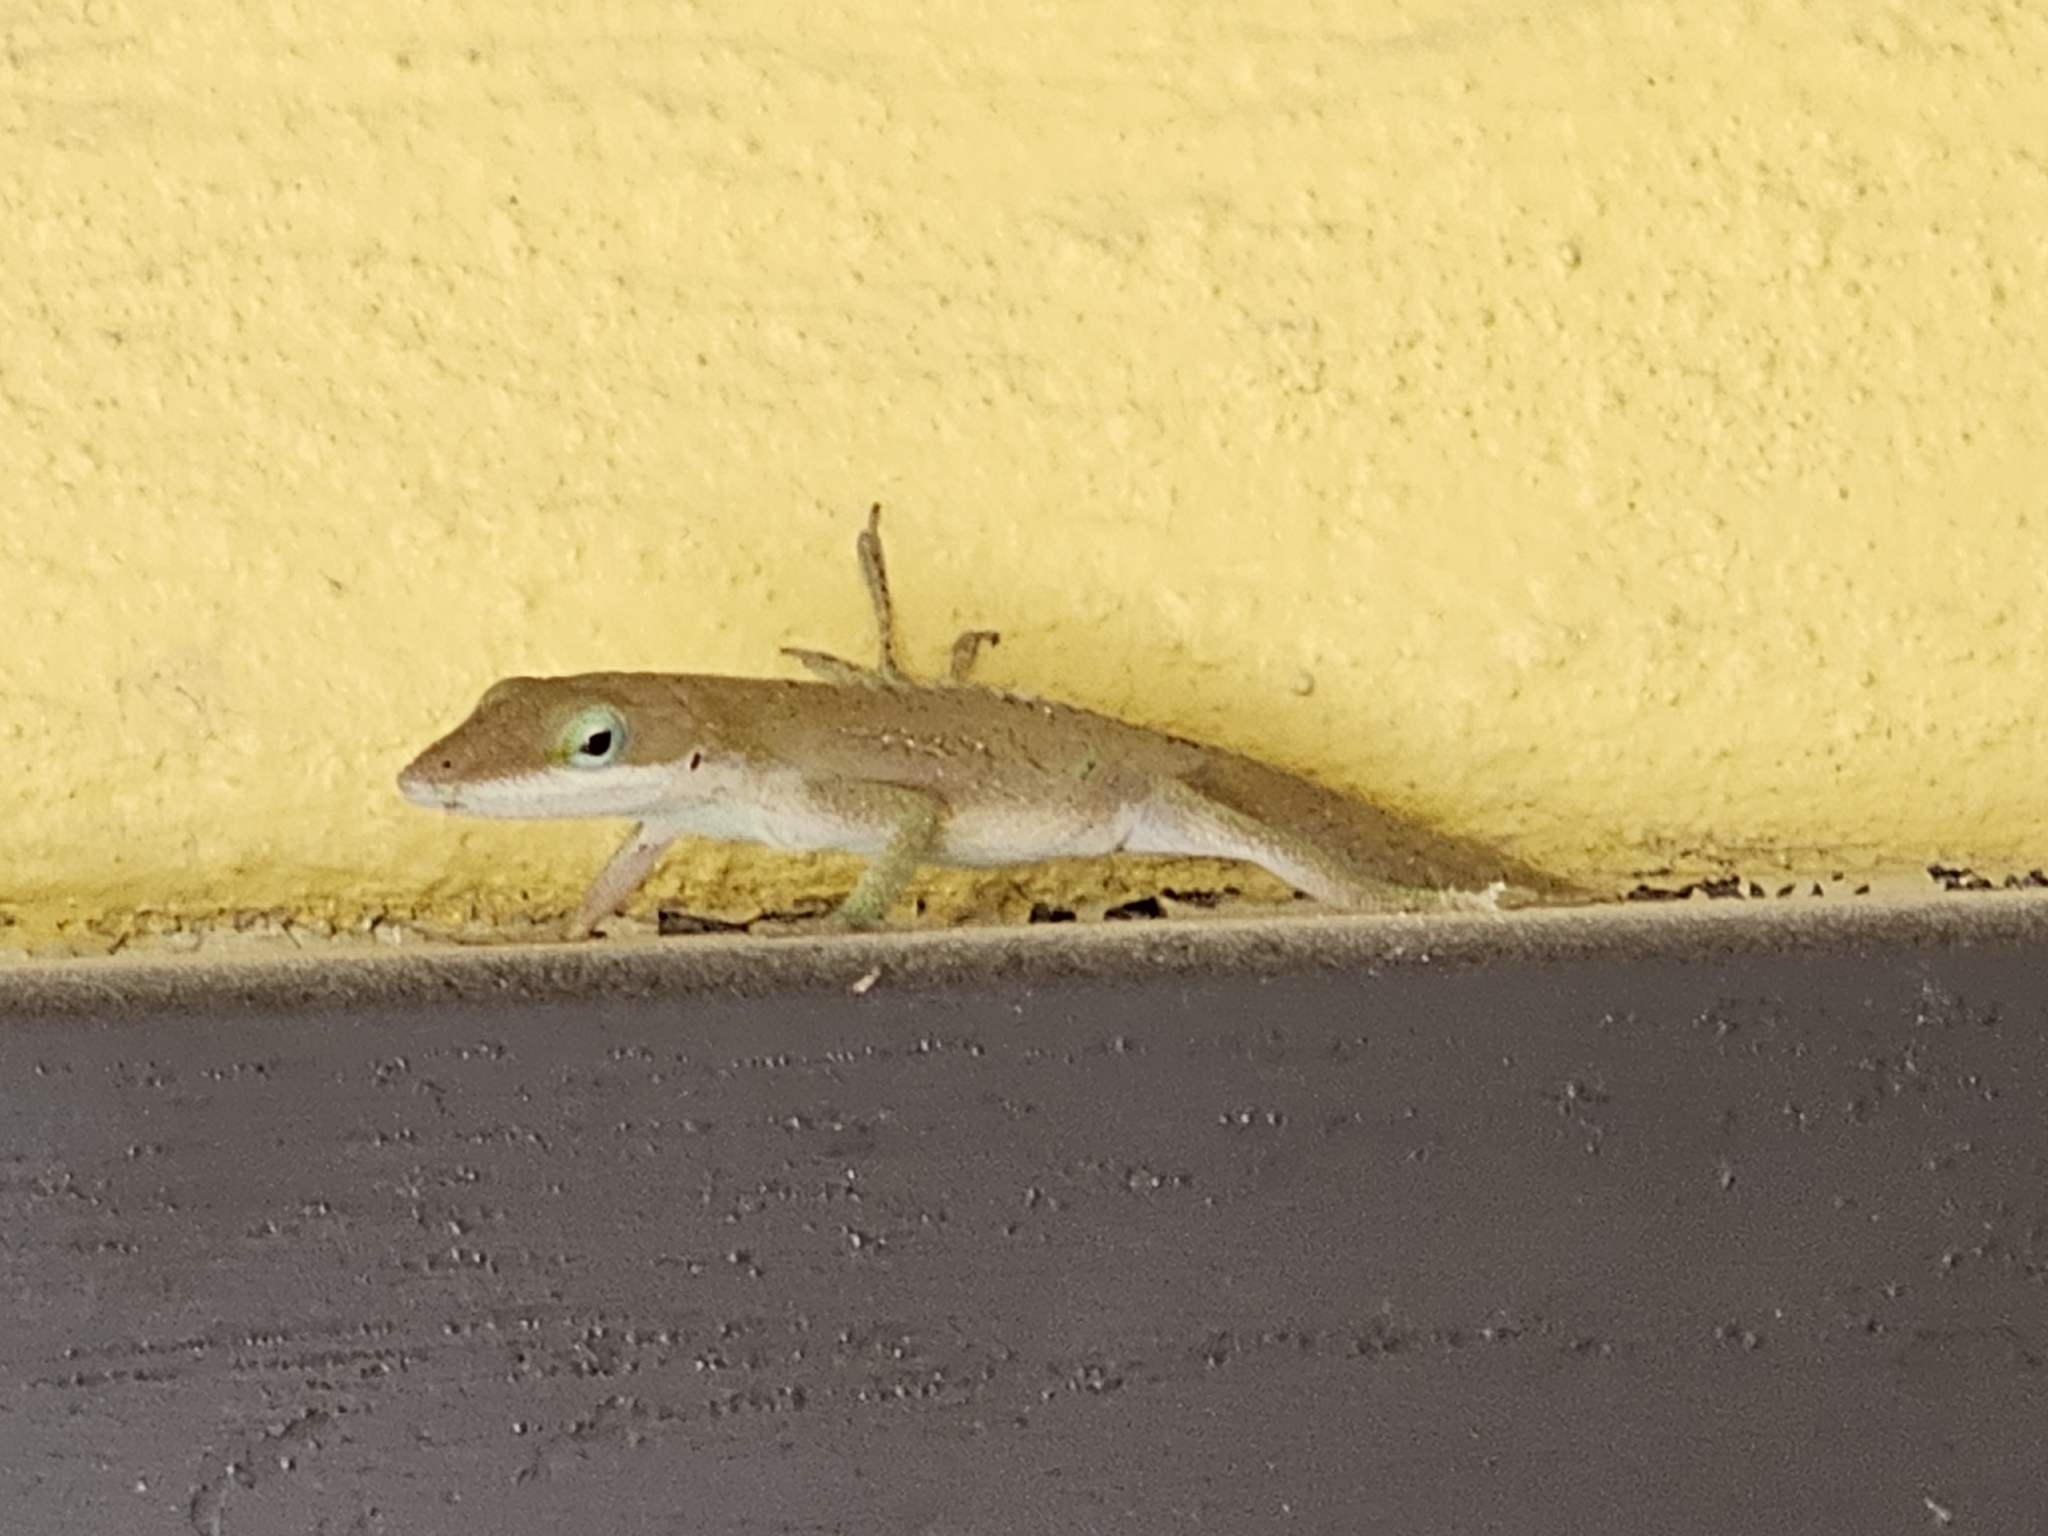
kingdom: Animalia
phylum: Chordata
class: Squamata
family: Dactyloidae
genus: Anolis
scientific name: Anolis carolinensis
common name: Green anole
